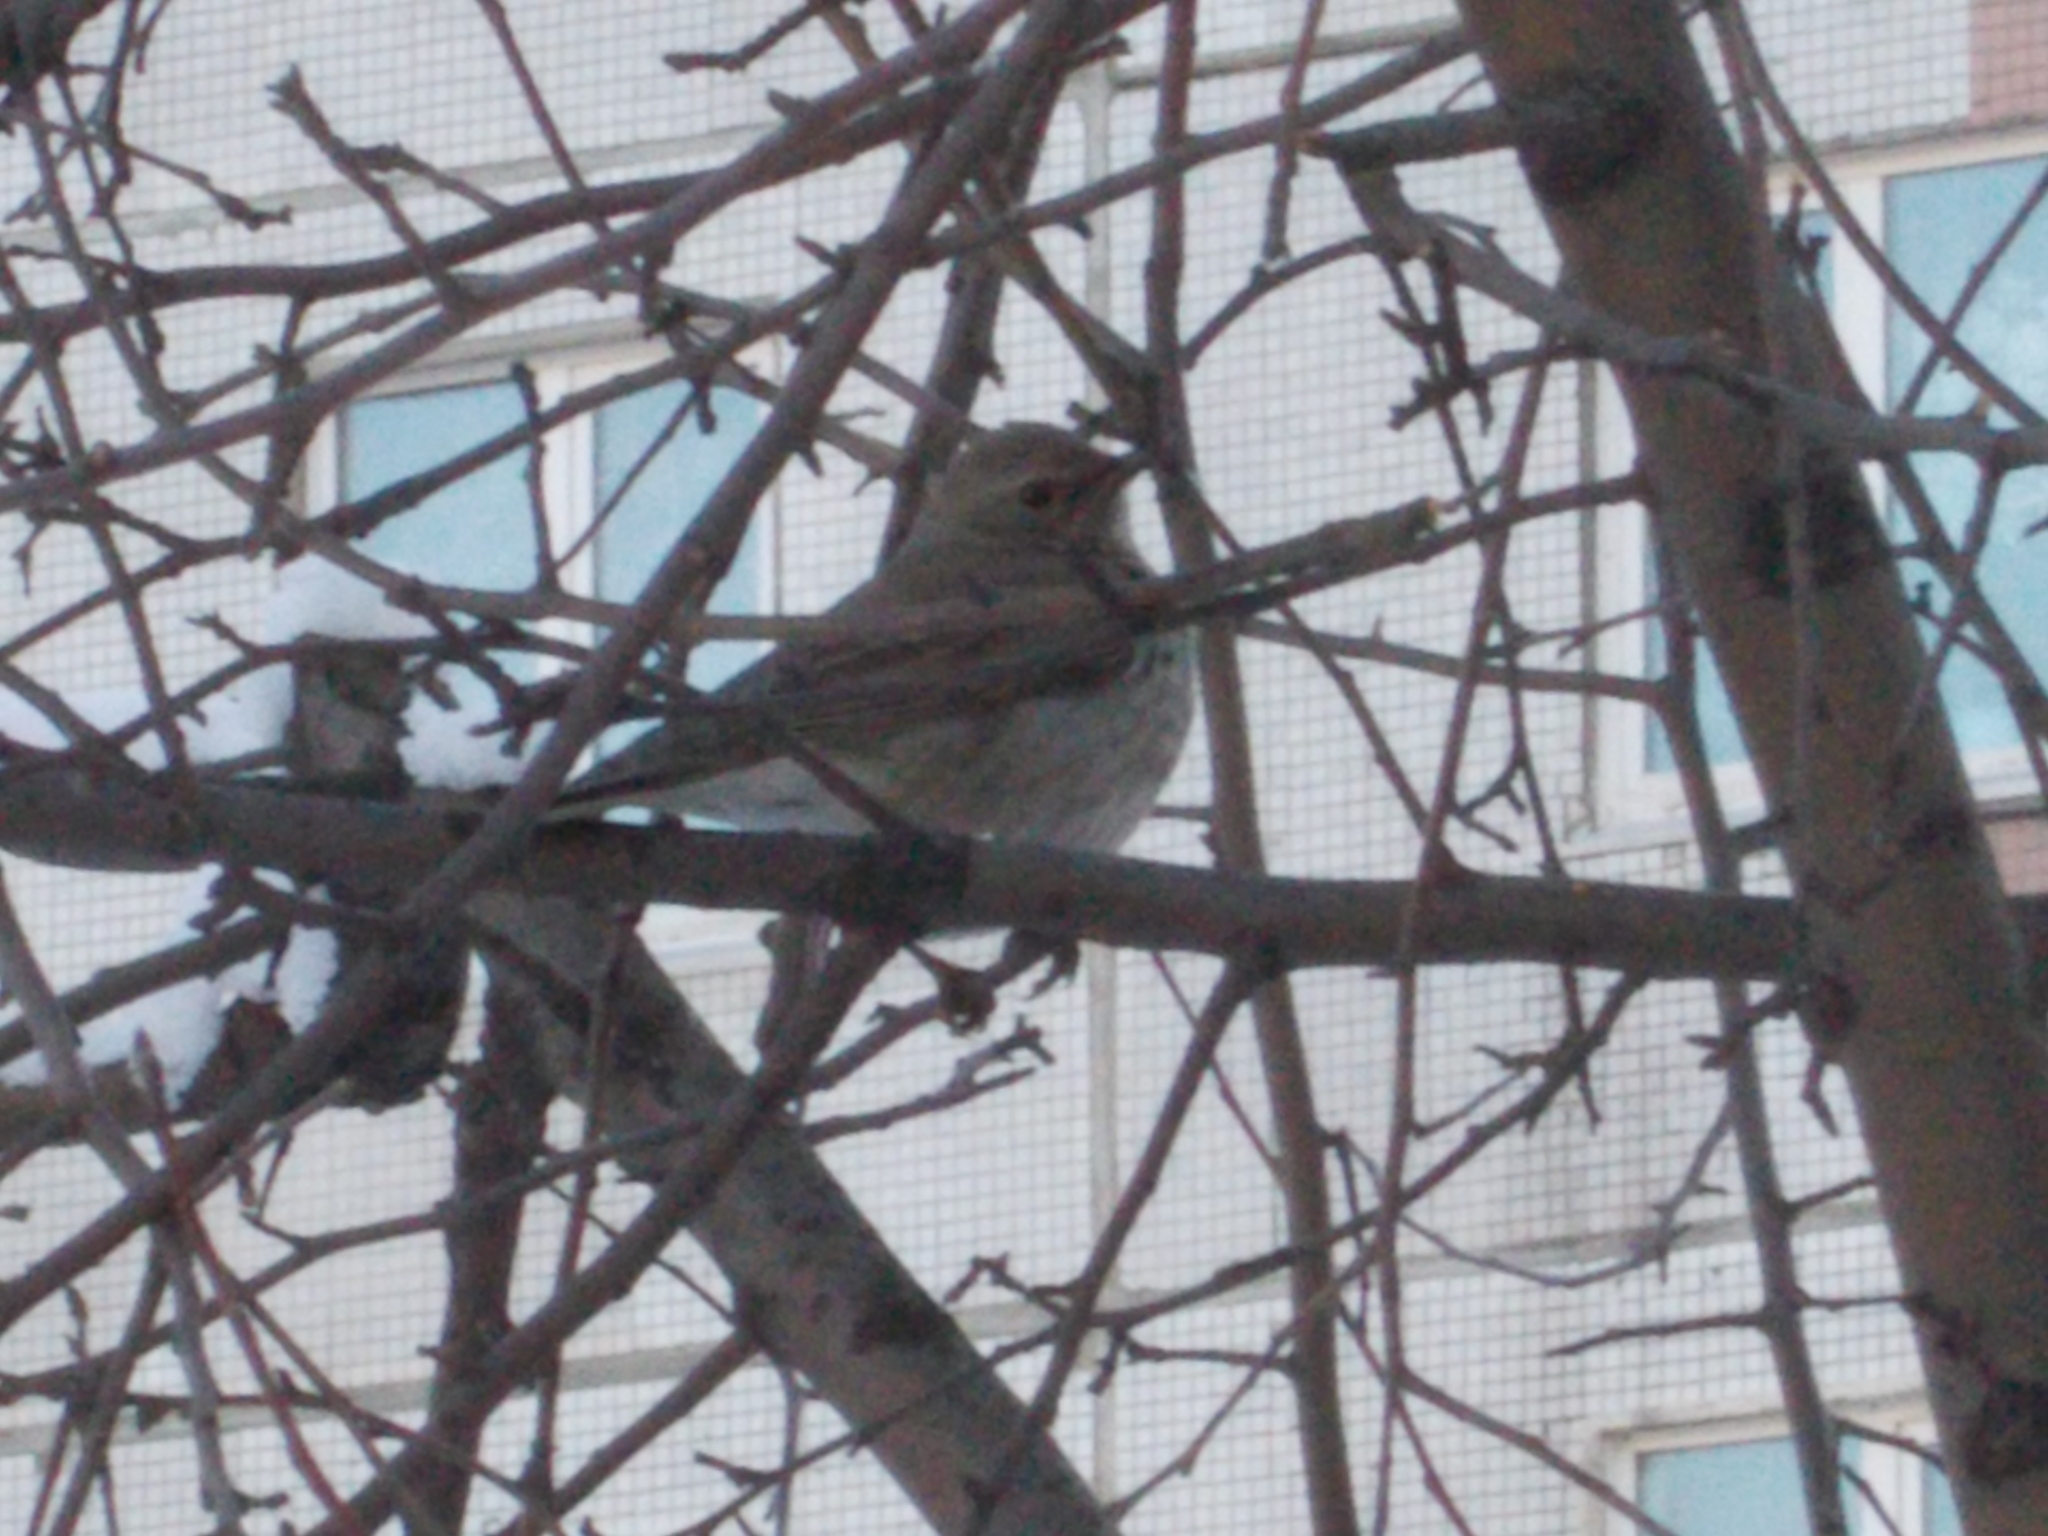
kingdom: Animalia
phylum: Chordata
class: Aves
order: Passeriformes
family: Turdidae
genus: Turdus
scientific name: Turdus atrogularis
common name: Black-throated thrush
